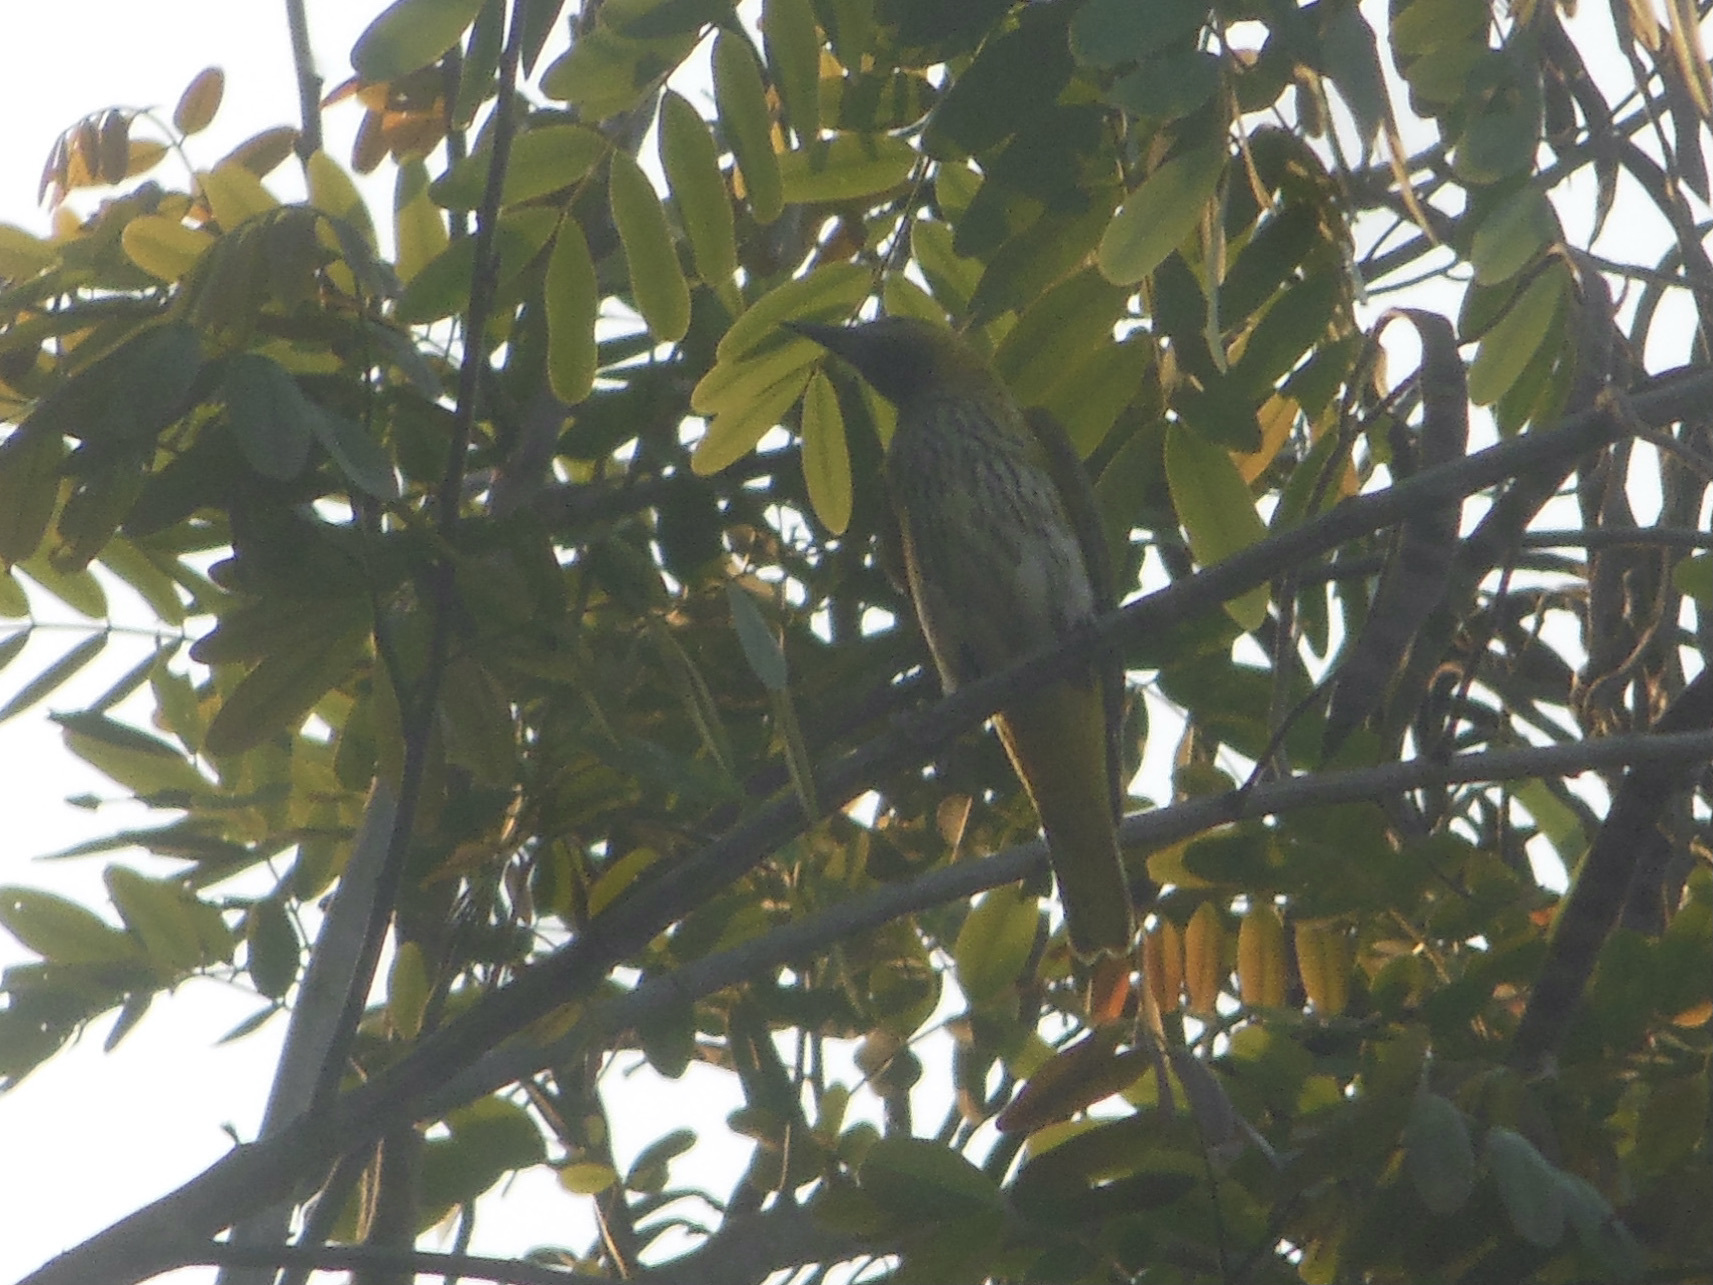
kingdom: Animalia
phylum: Chordata
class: Aves
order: Passeriformes
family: Oriolidae
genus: Oriolus
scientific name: Oriolus kundoo
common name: Indian golden oriole
